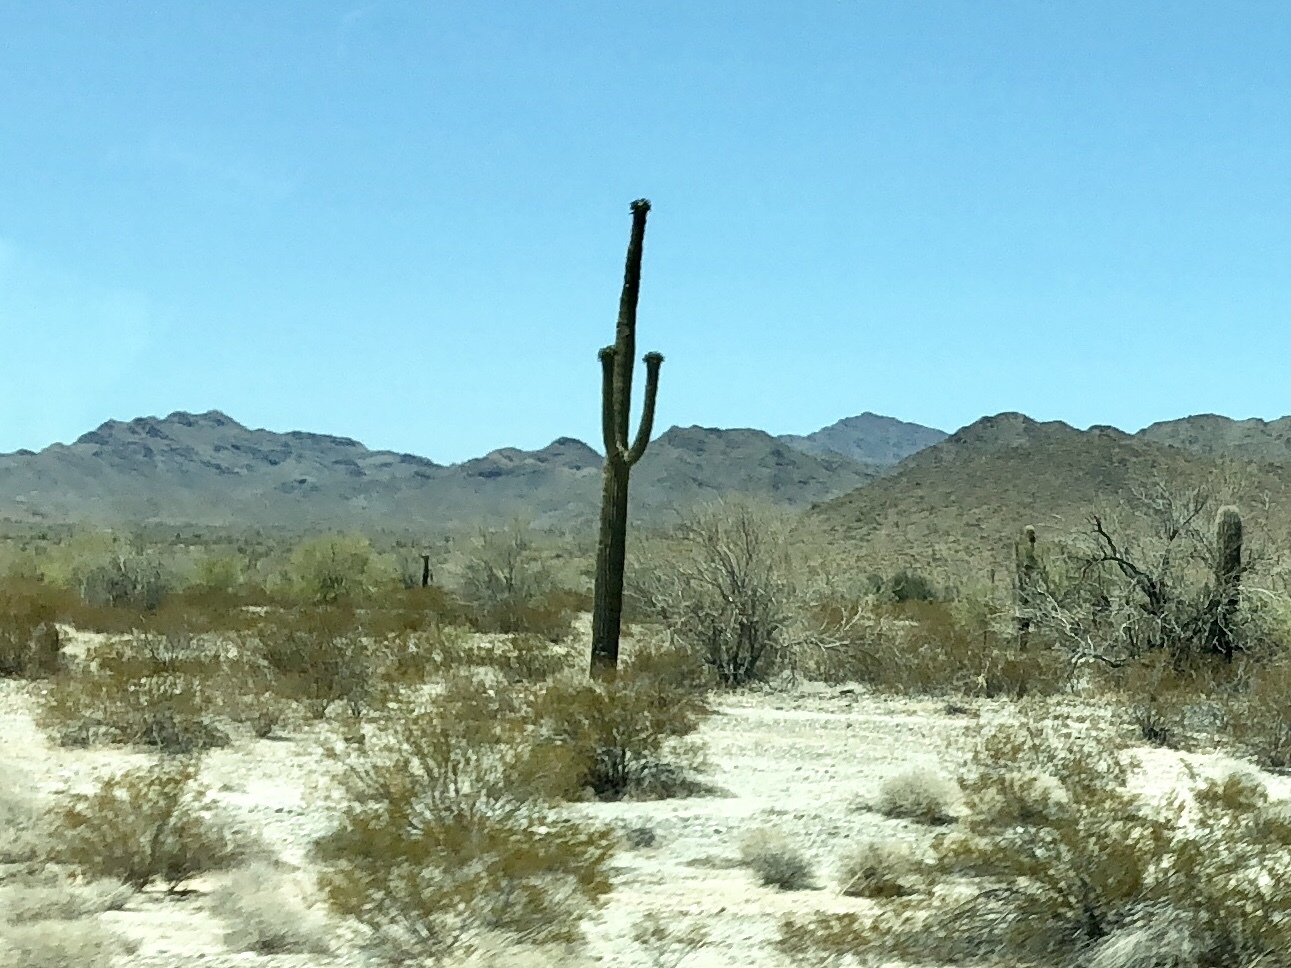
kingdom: Plantae
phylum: Tracheophyta
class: Magnoliopsida
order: Caryophyllales
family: Cactaceae
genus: Carnegiea
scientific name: Carnegiea gigantea
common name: Saguaro
